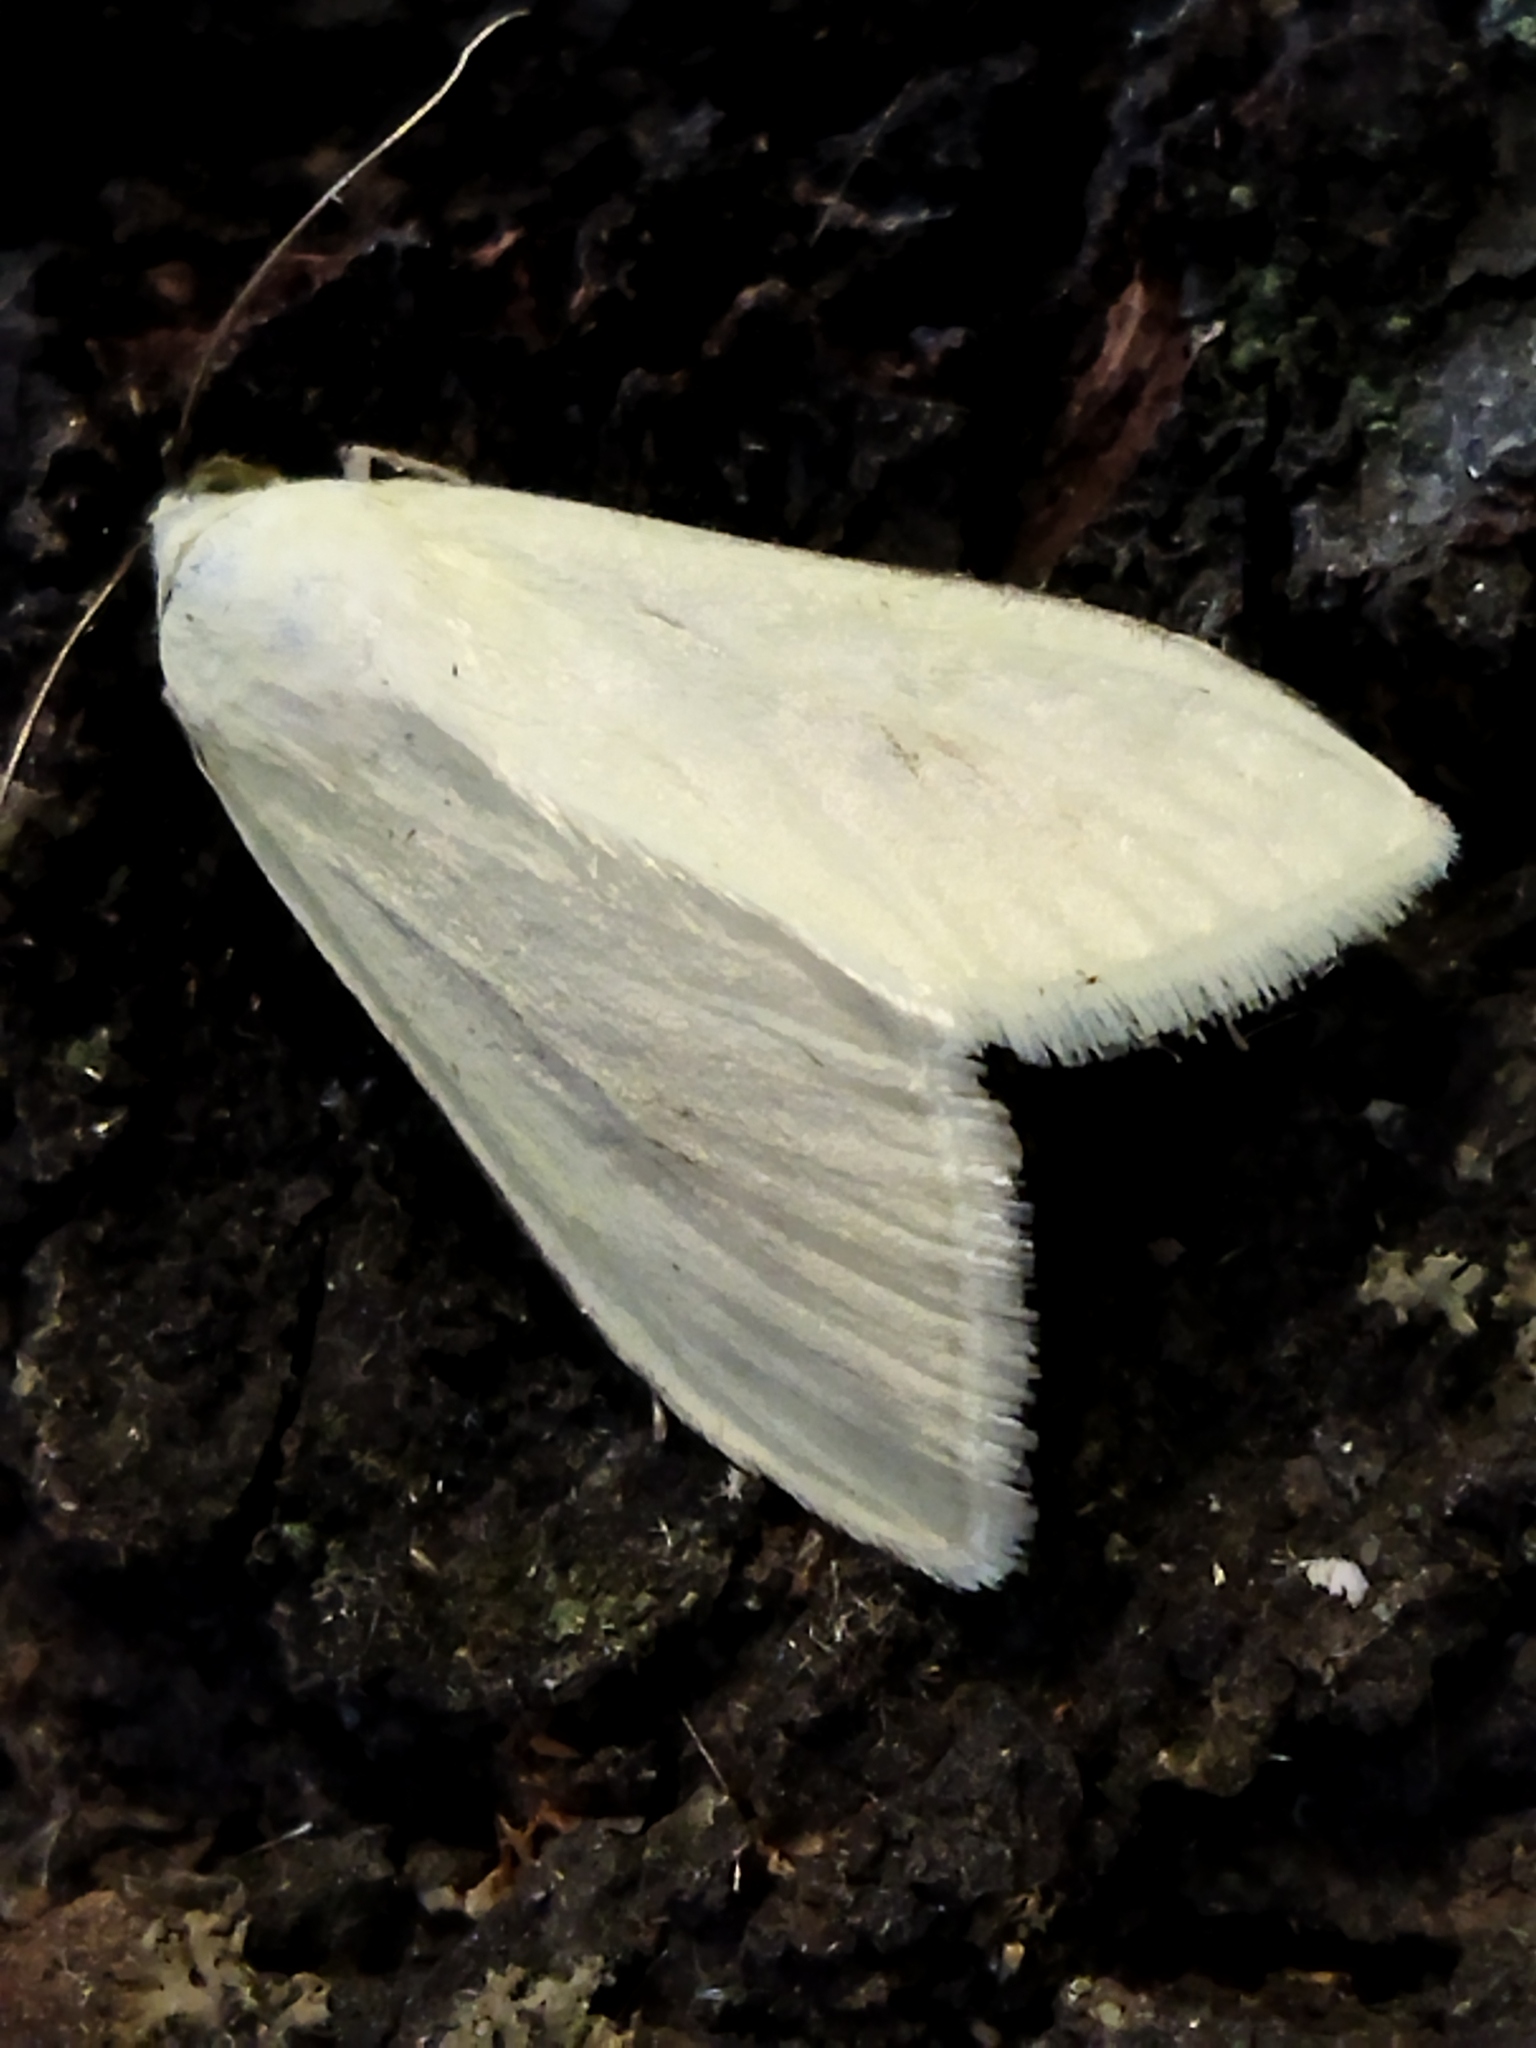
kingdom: Animalia
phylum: Arthropoda
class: Insecta
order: Lepidoptera
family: Crambidae
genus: Sitochroa
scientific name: Sitochroa palealis
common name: Greenish-yellow sitochroa moth
